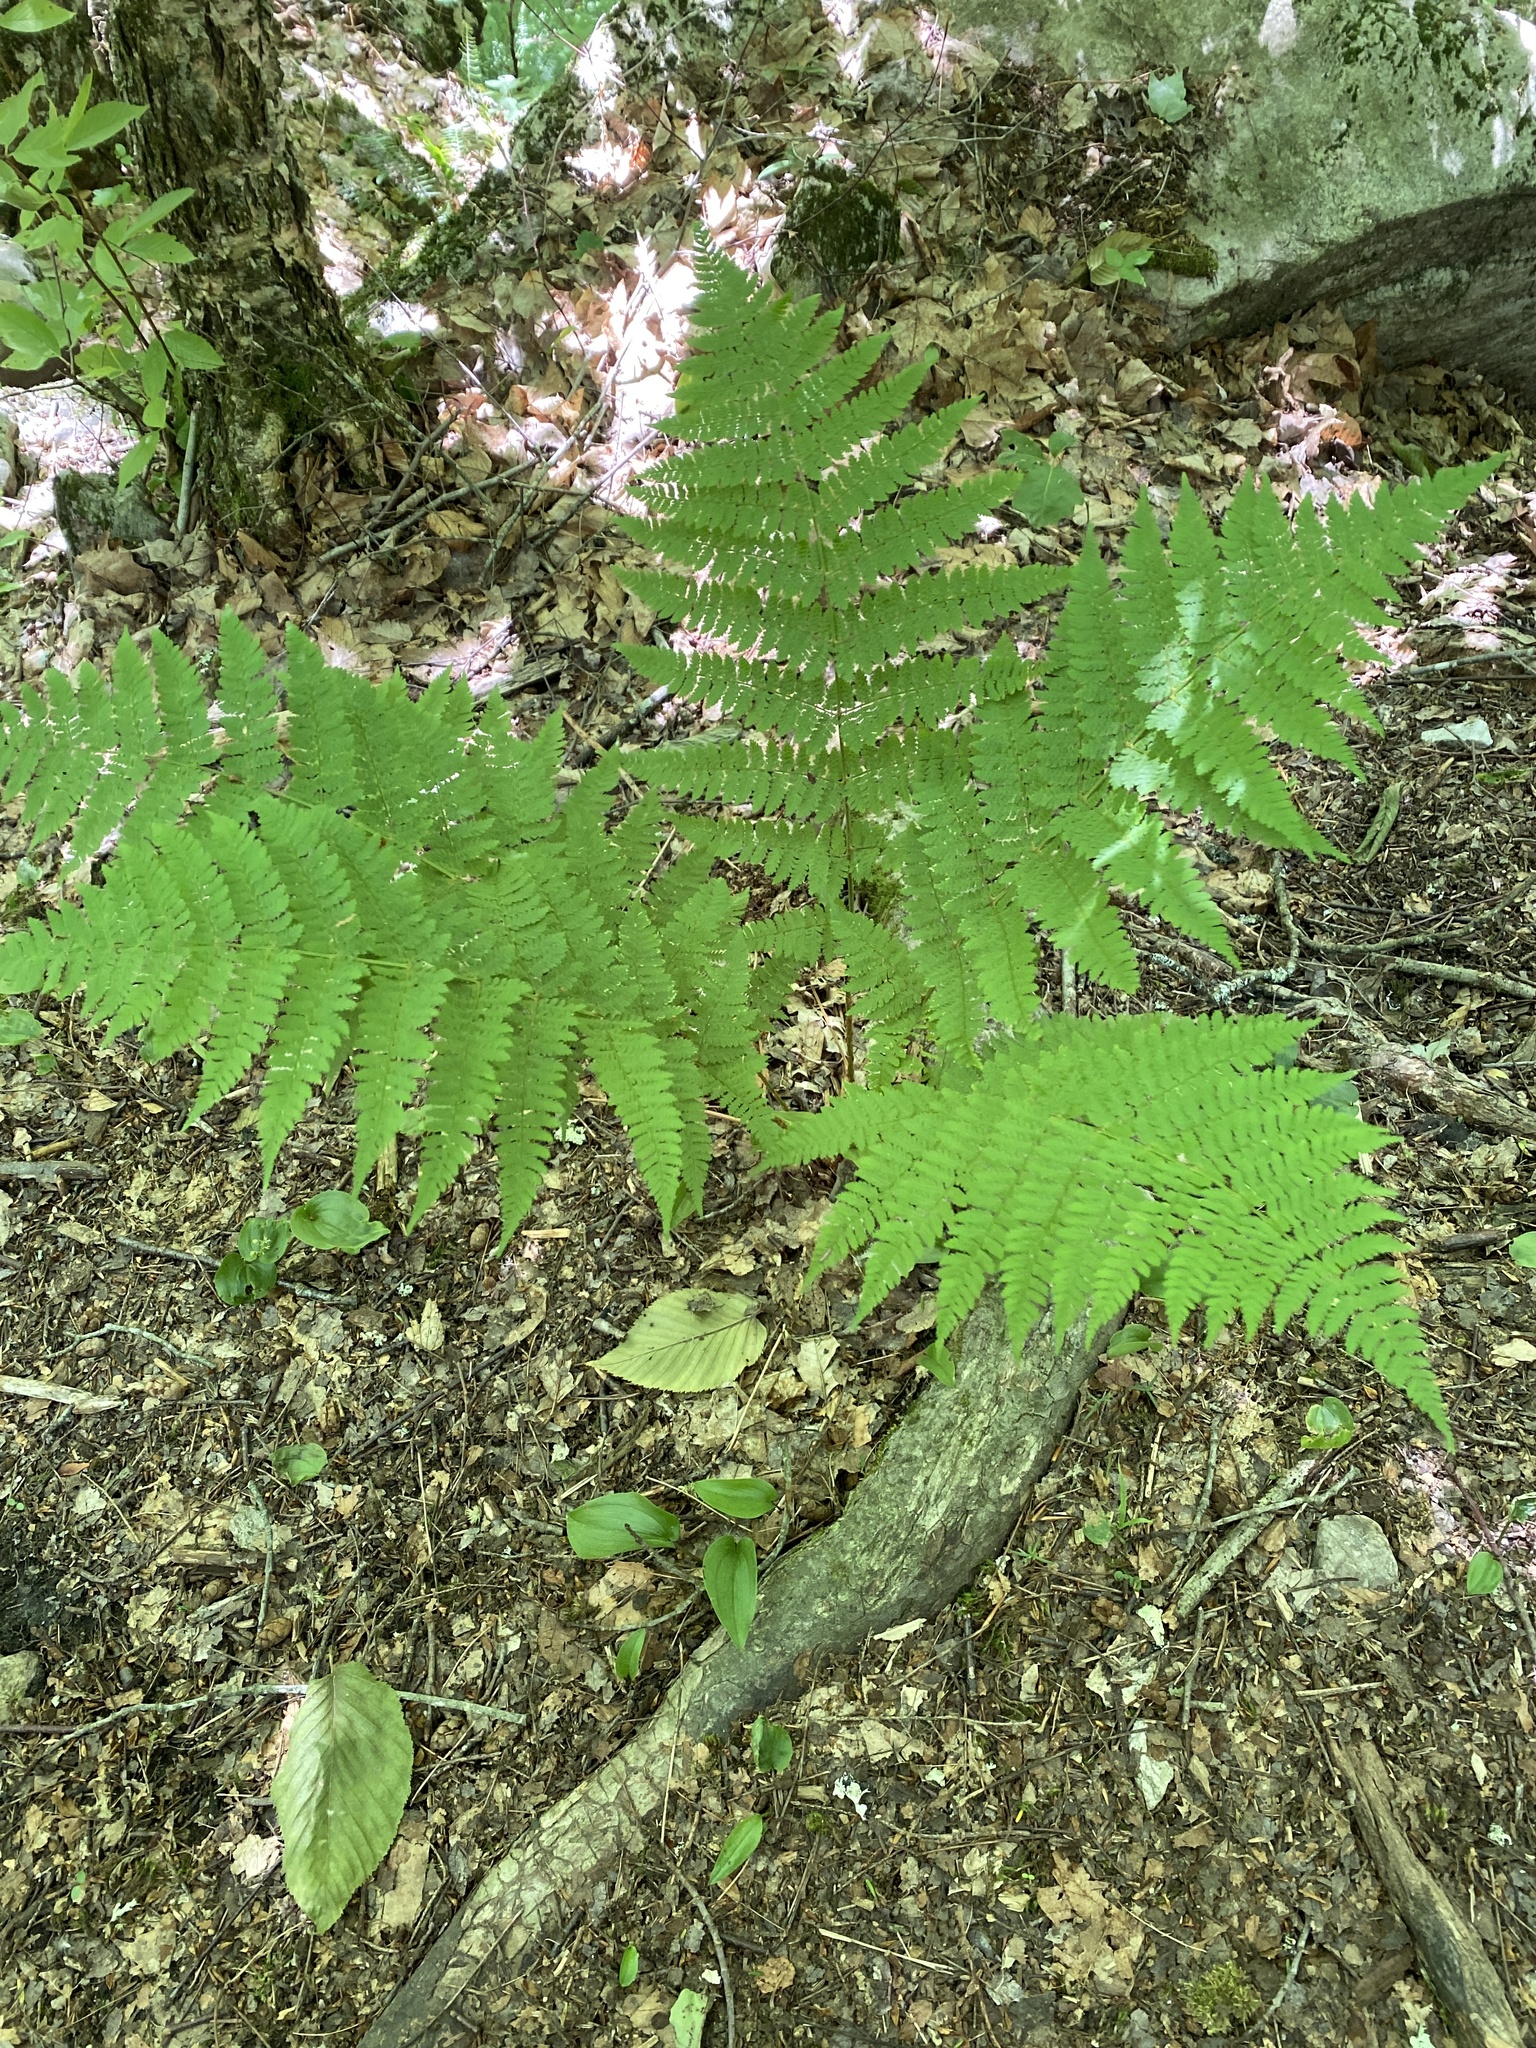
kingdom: Plantae
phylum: Tracheophyta
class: Polypodiopsida
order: Polypodiales
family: Dryopteridaceae
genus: Dryopteris
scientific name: Dryopteris intermedia
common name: Evergreen wood fern
